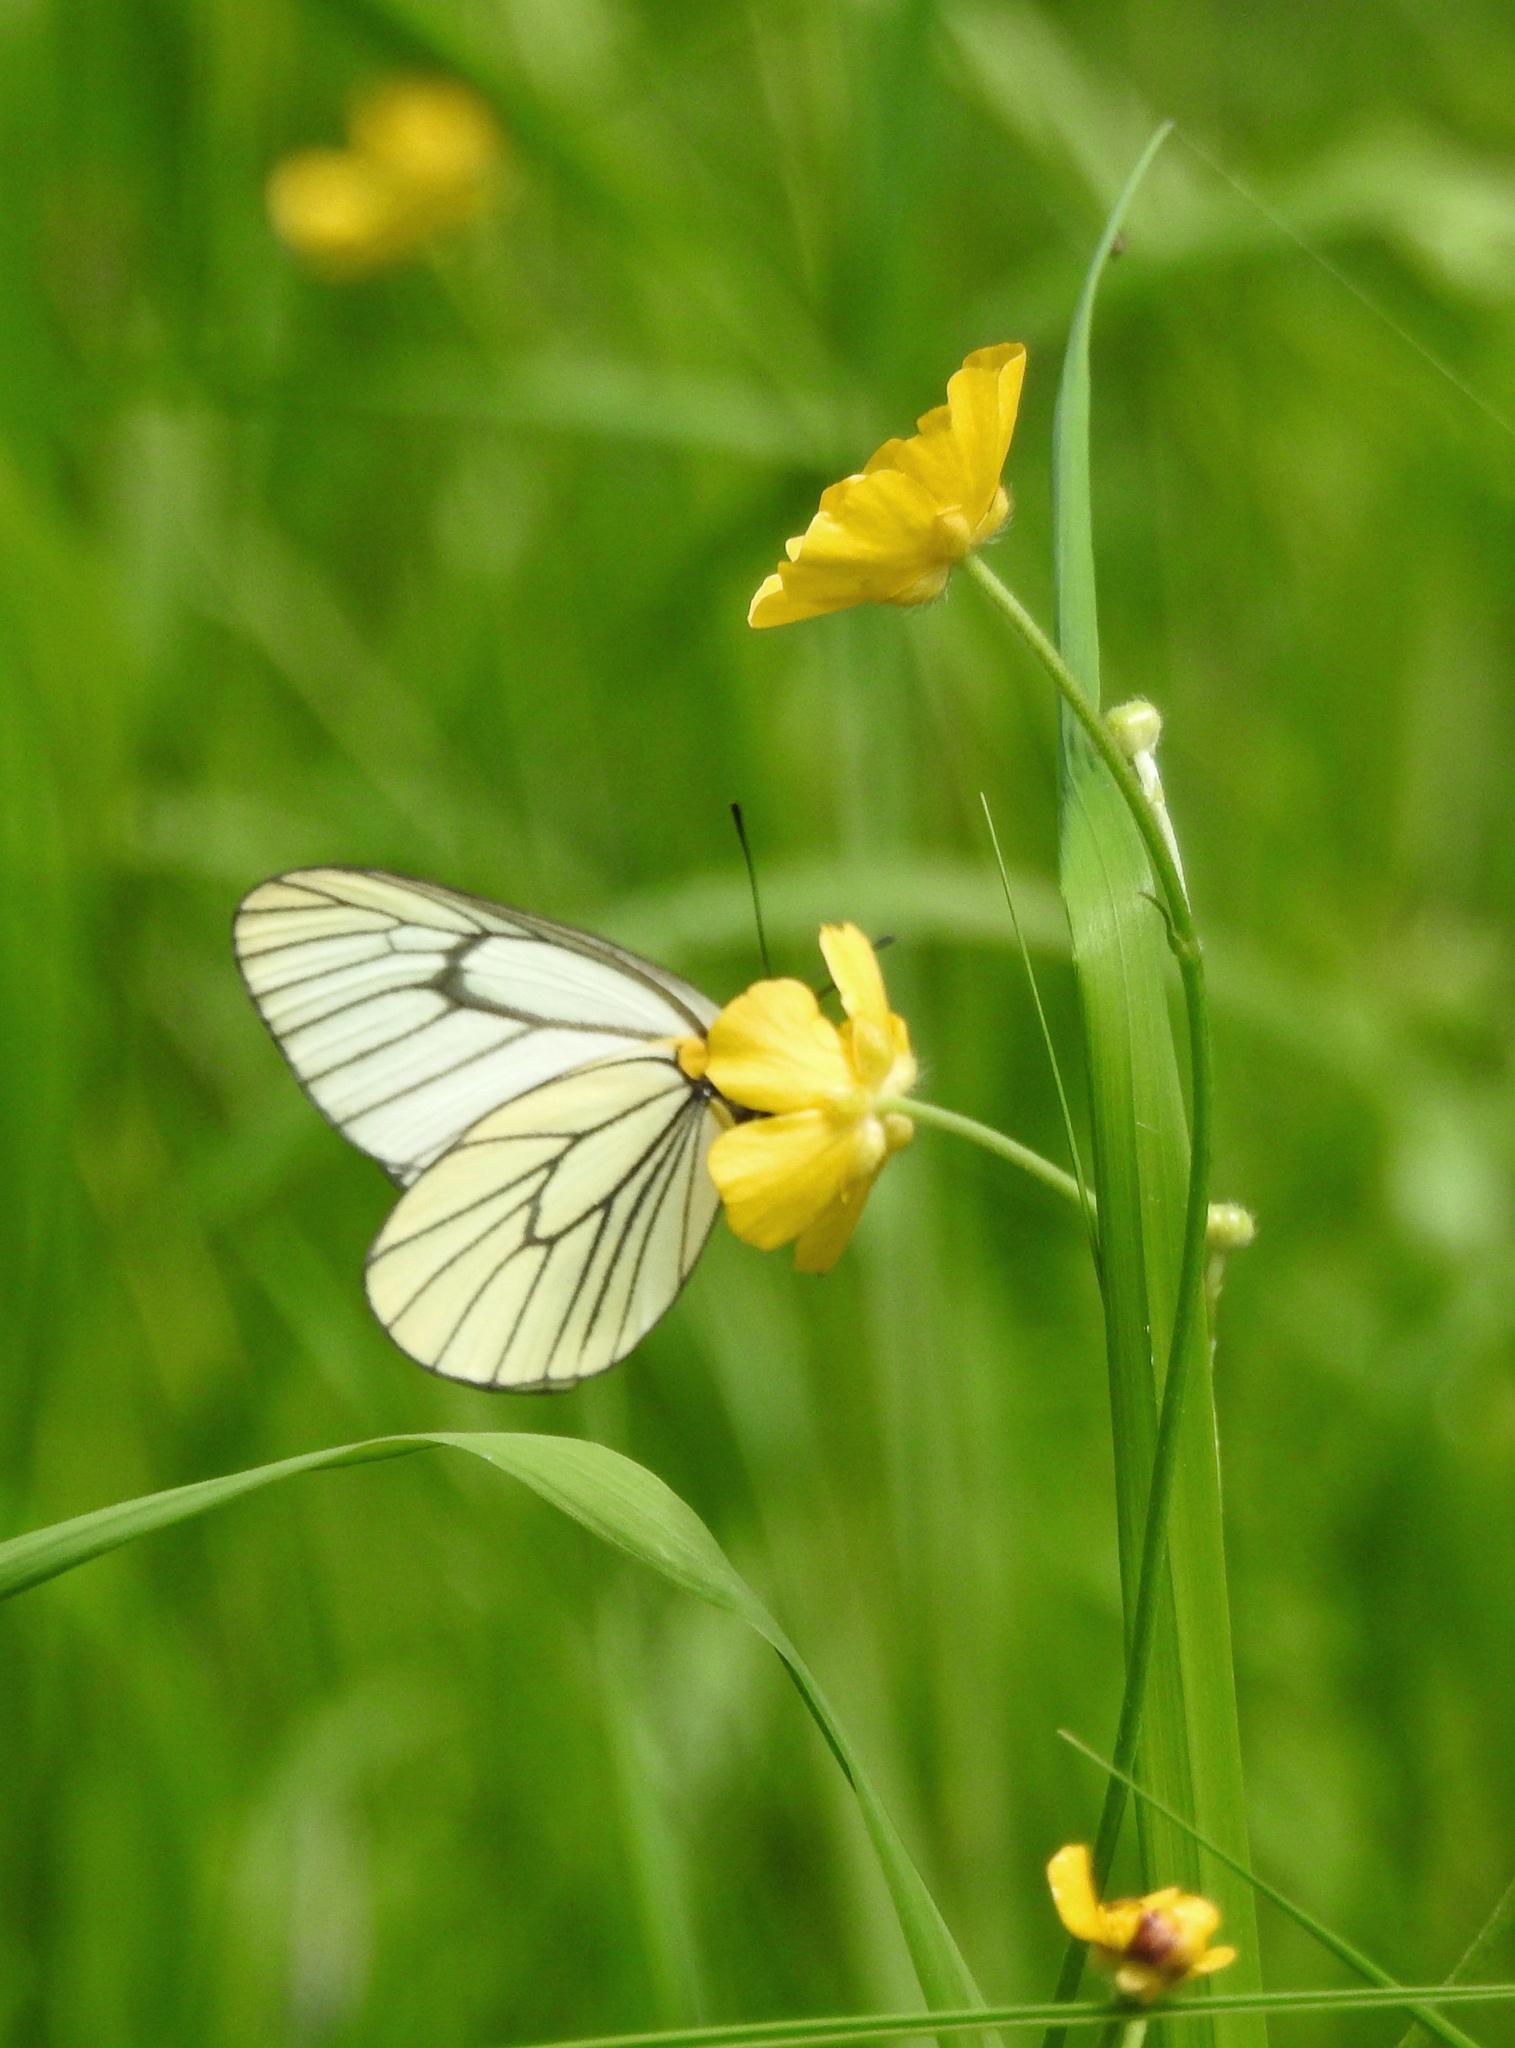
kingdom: Animalia
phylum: Arthropoda
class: Insecta
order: Lepidoptera
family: Pieridae
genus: Aporia
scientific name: Aporia hippia
